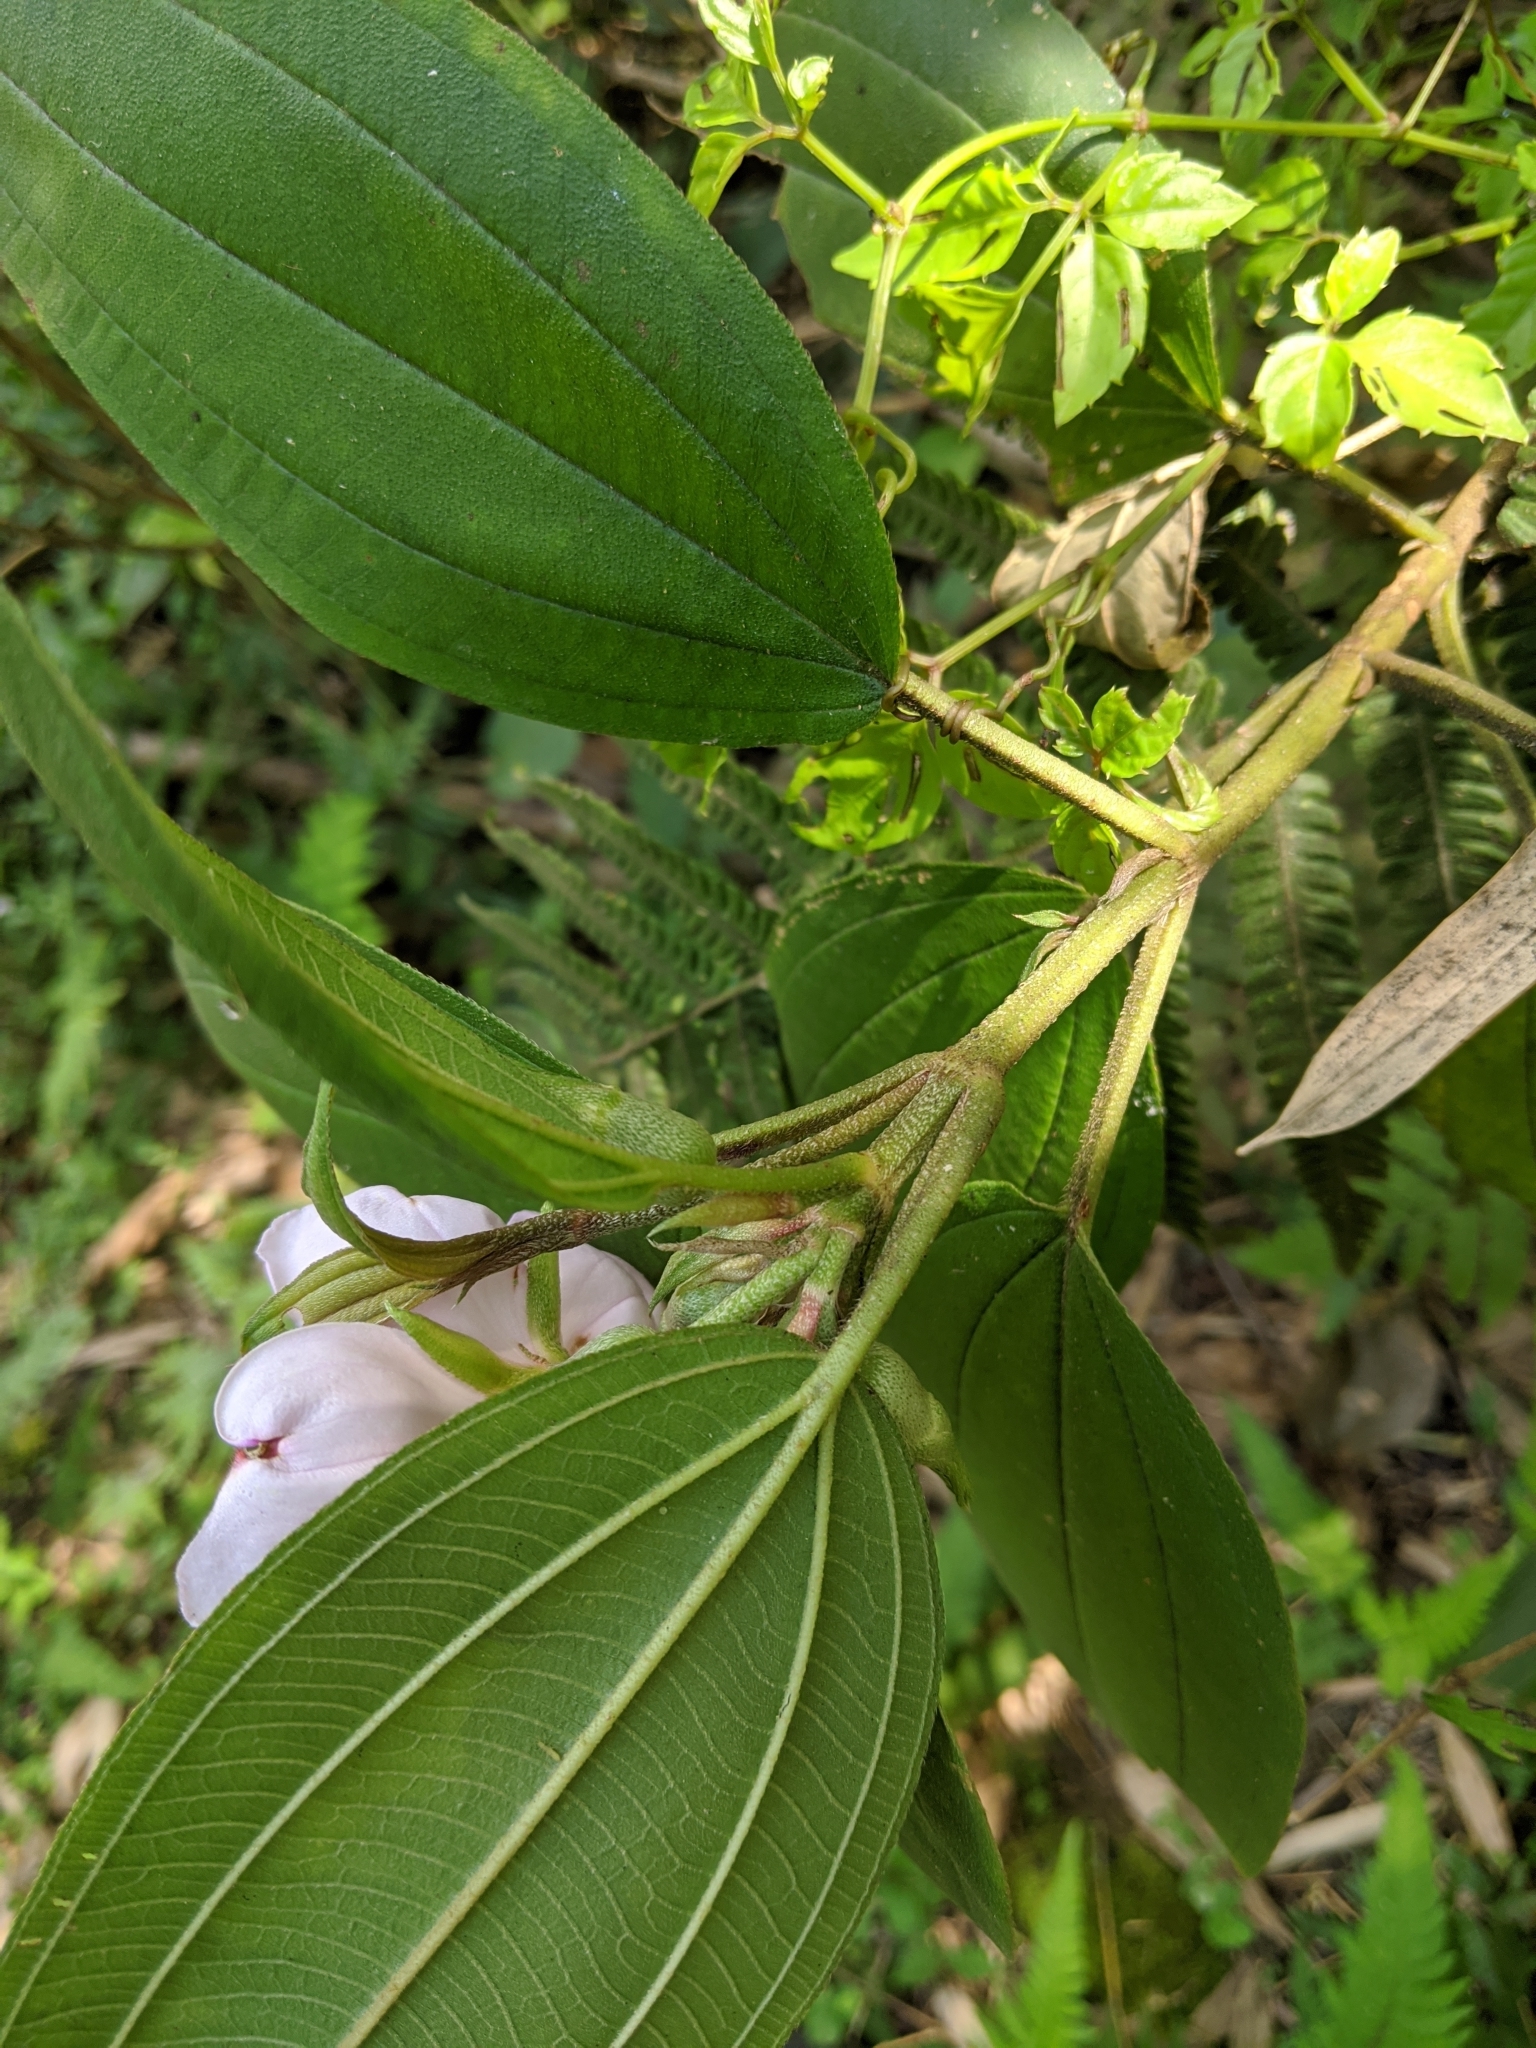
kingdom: Plantae
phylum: Tracheophyta
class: Magnoliopsida
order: Myrtales
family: Melastomataceae
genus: Melastoma
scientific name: Melastoma malabathricum
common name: Indian-rhododendron
